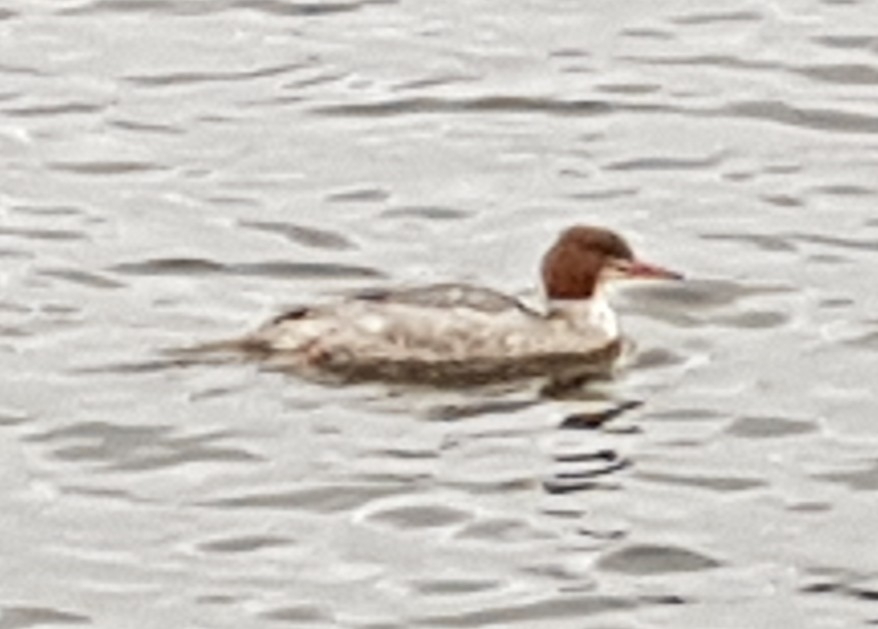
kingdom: Animalia
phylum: Chordata
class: Aves
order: Anseriformes
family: Anatidae
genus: Mergus
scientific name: Mergus merganser
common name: Common merganser
